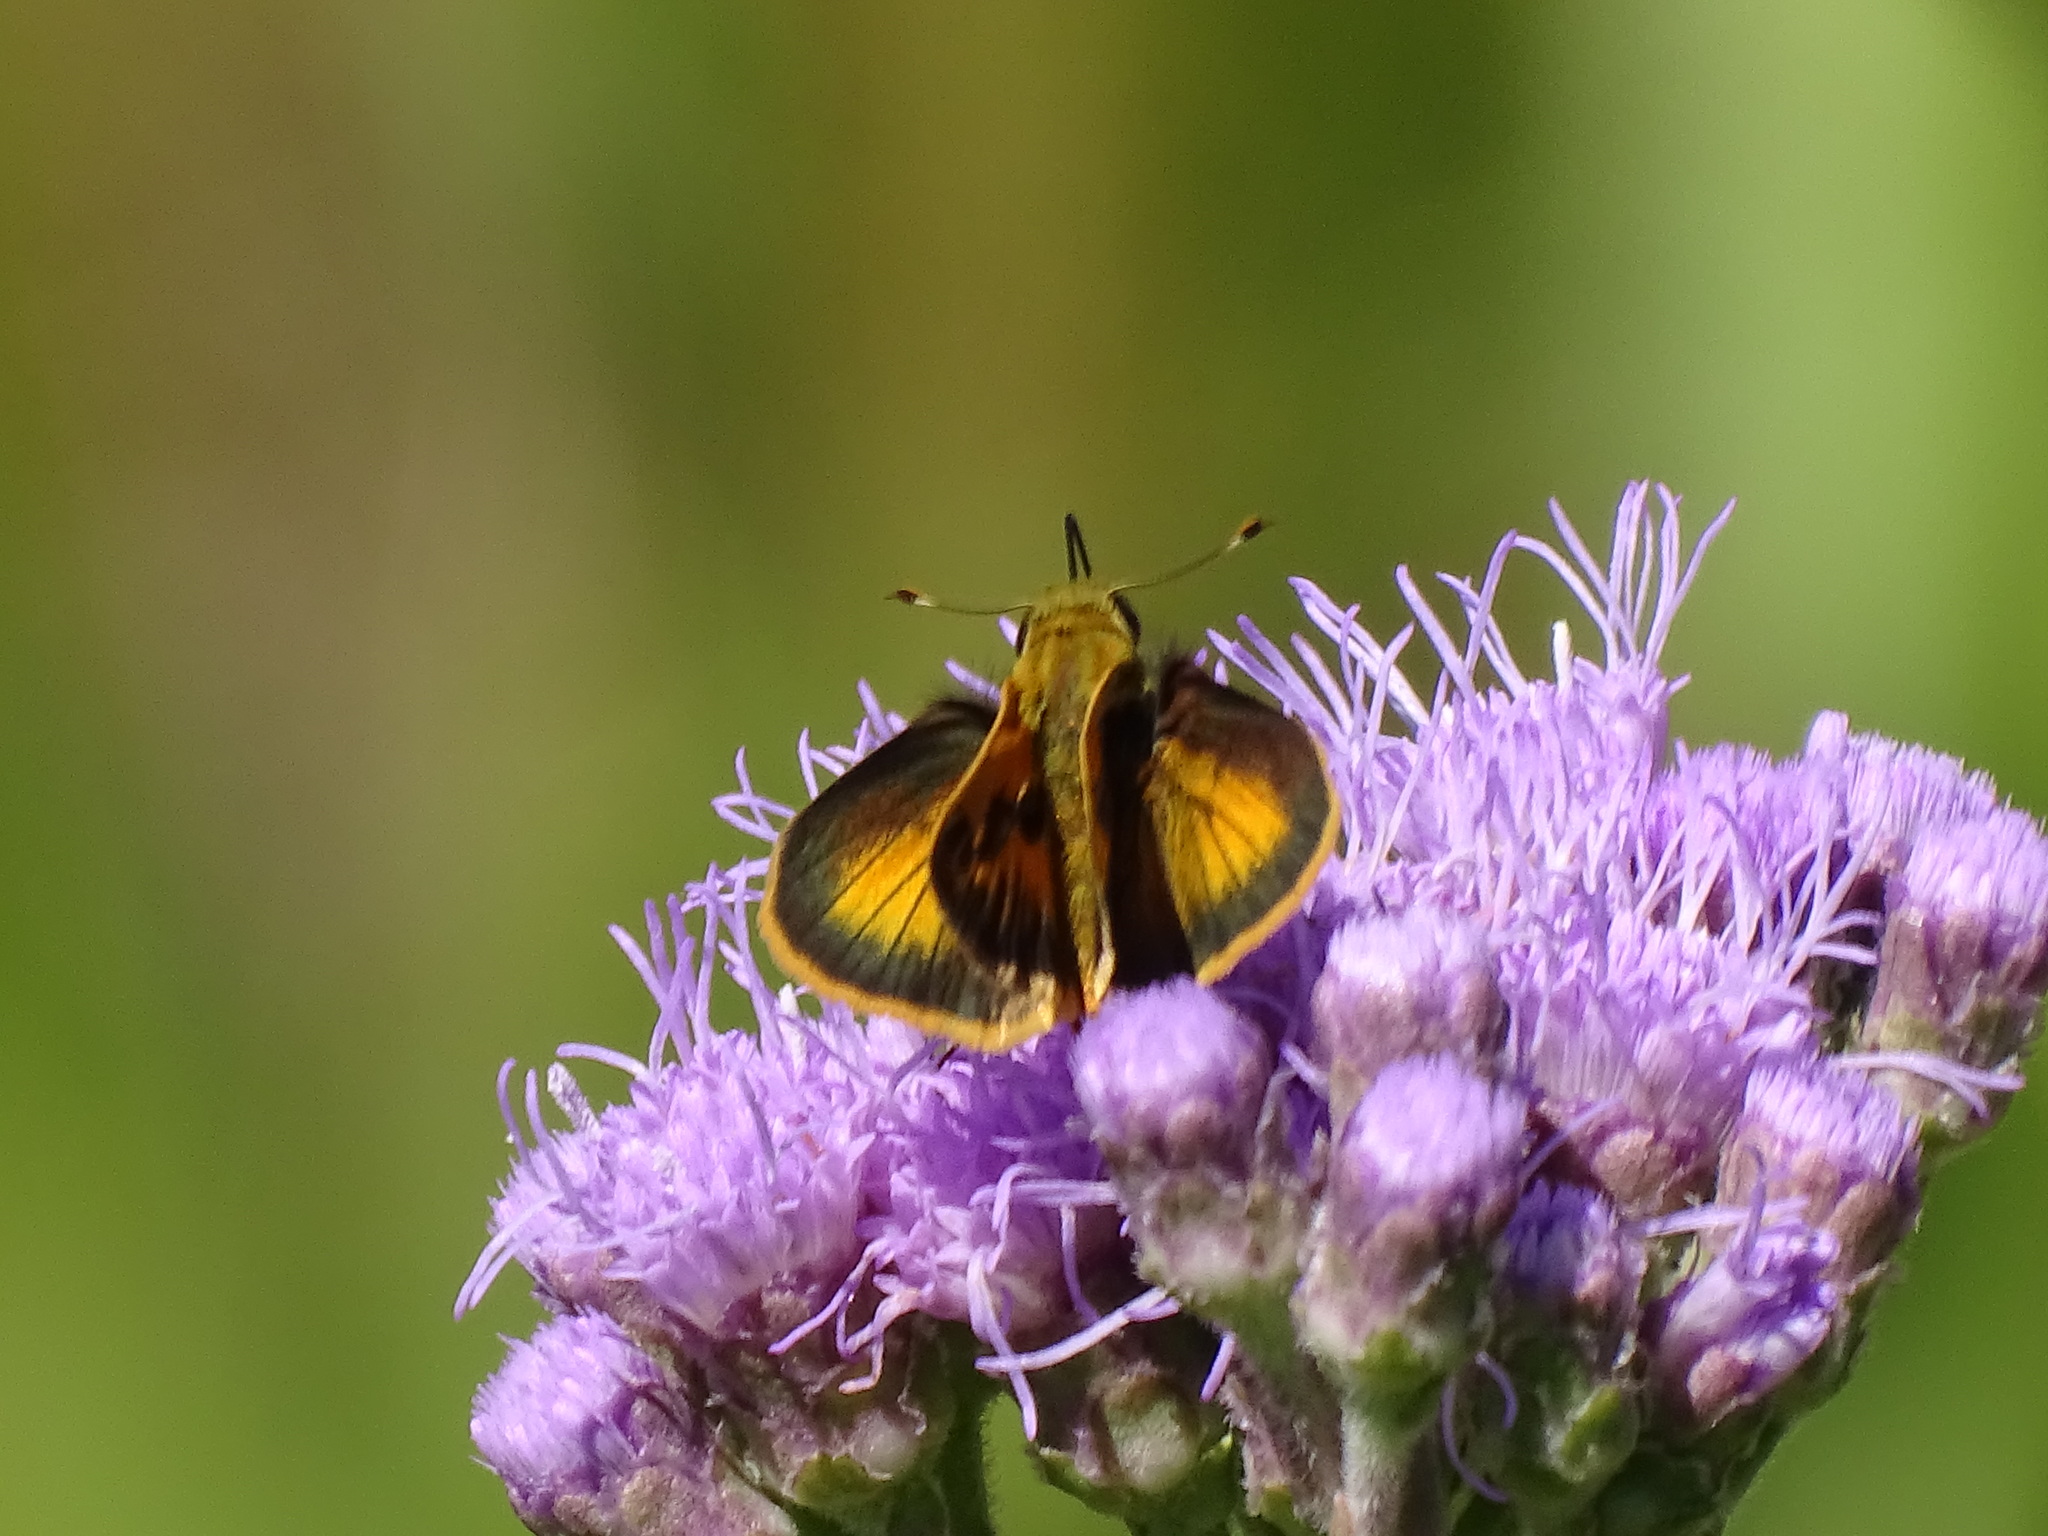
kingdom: Animalia
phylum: Arthropoda
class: Insecta
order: Lepidoptera
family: Hesperiidae
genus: Polites
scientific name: Polites vibex
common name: Whirlabout
